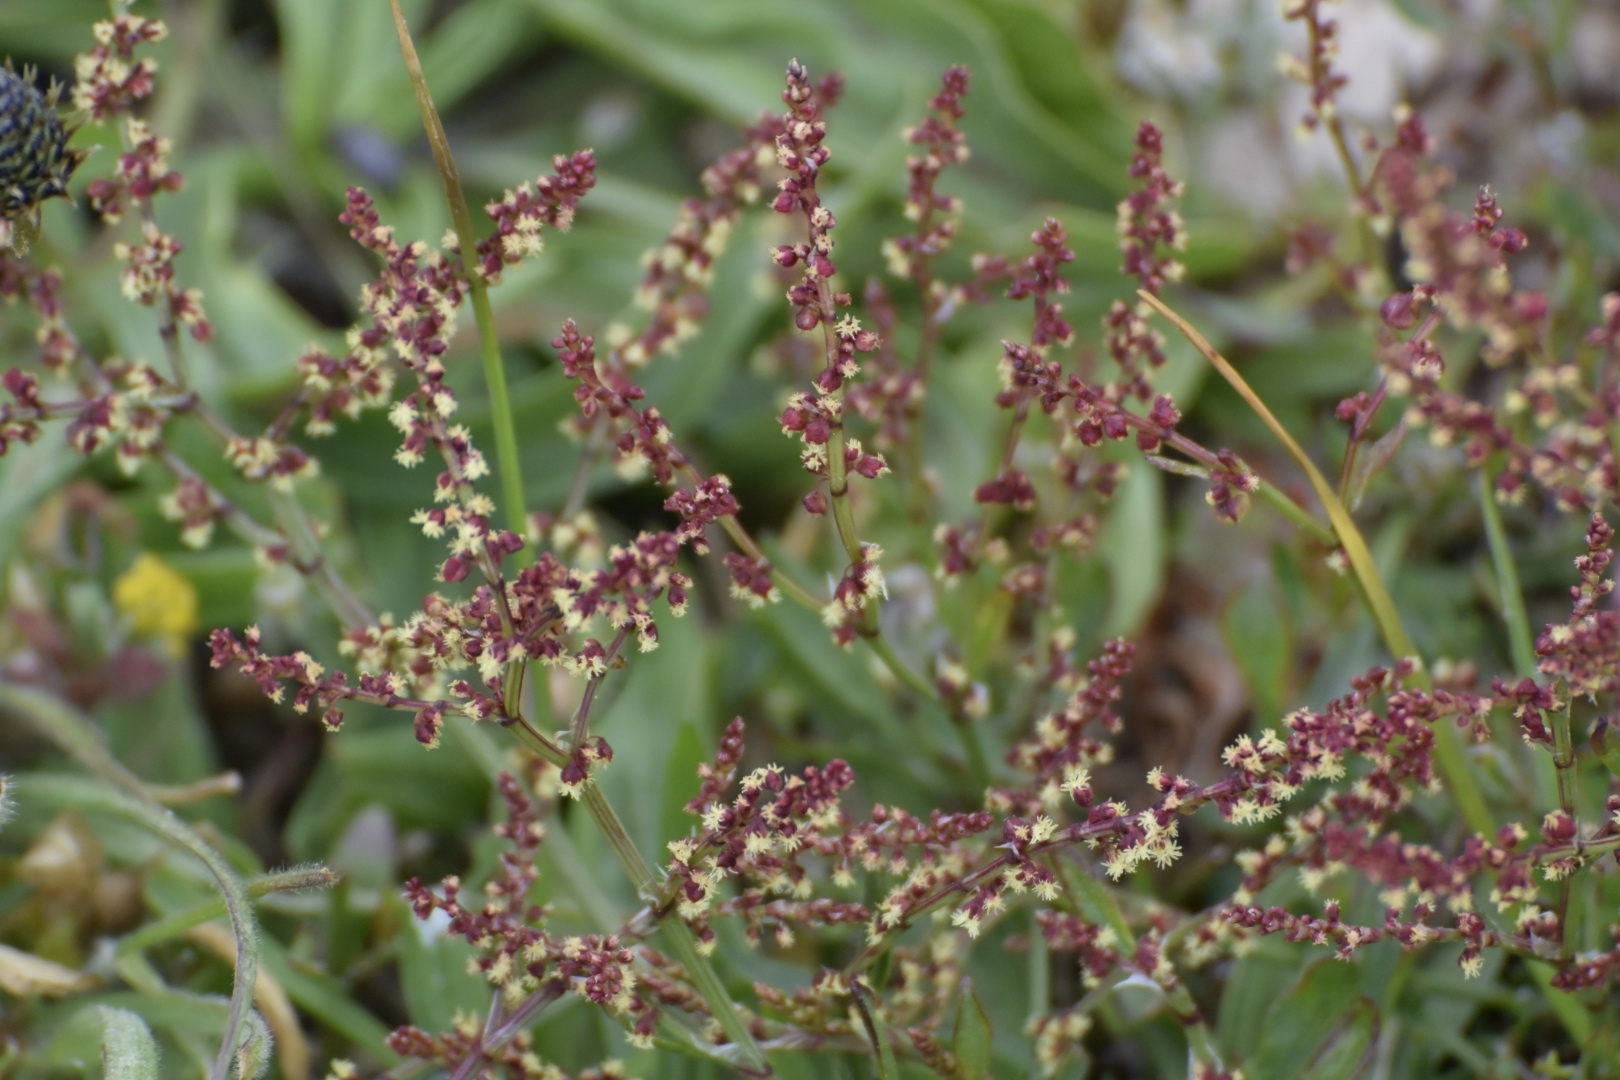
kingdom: Plantae
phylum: Tracheophyta
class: Magnoliopsida
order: Caryophyllales
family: Polygonaceae
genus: Rumex
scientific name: Rumex acetosella
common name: Common sheep sorrel
